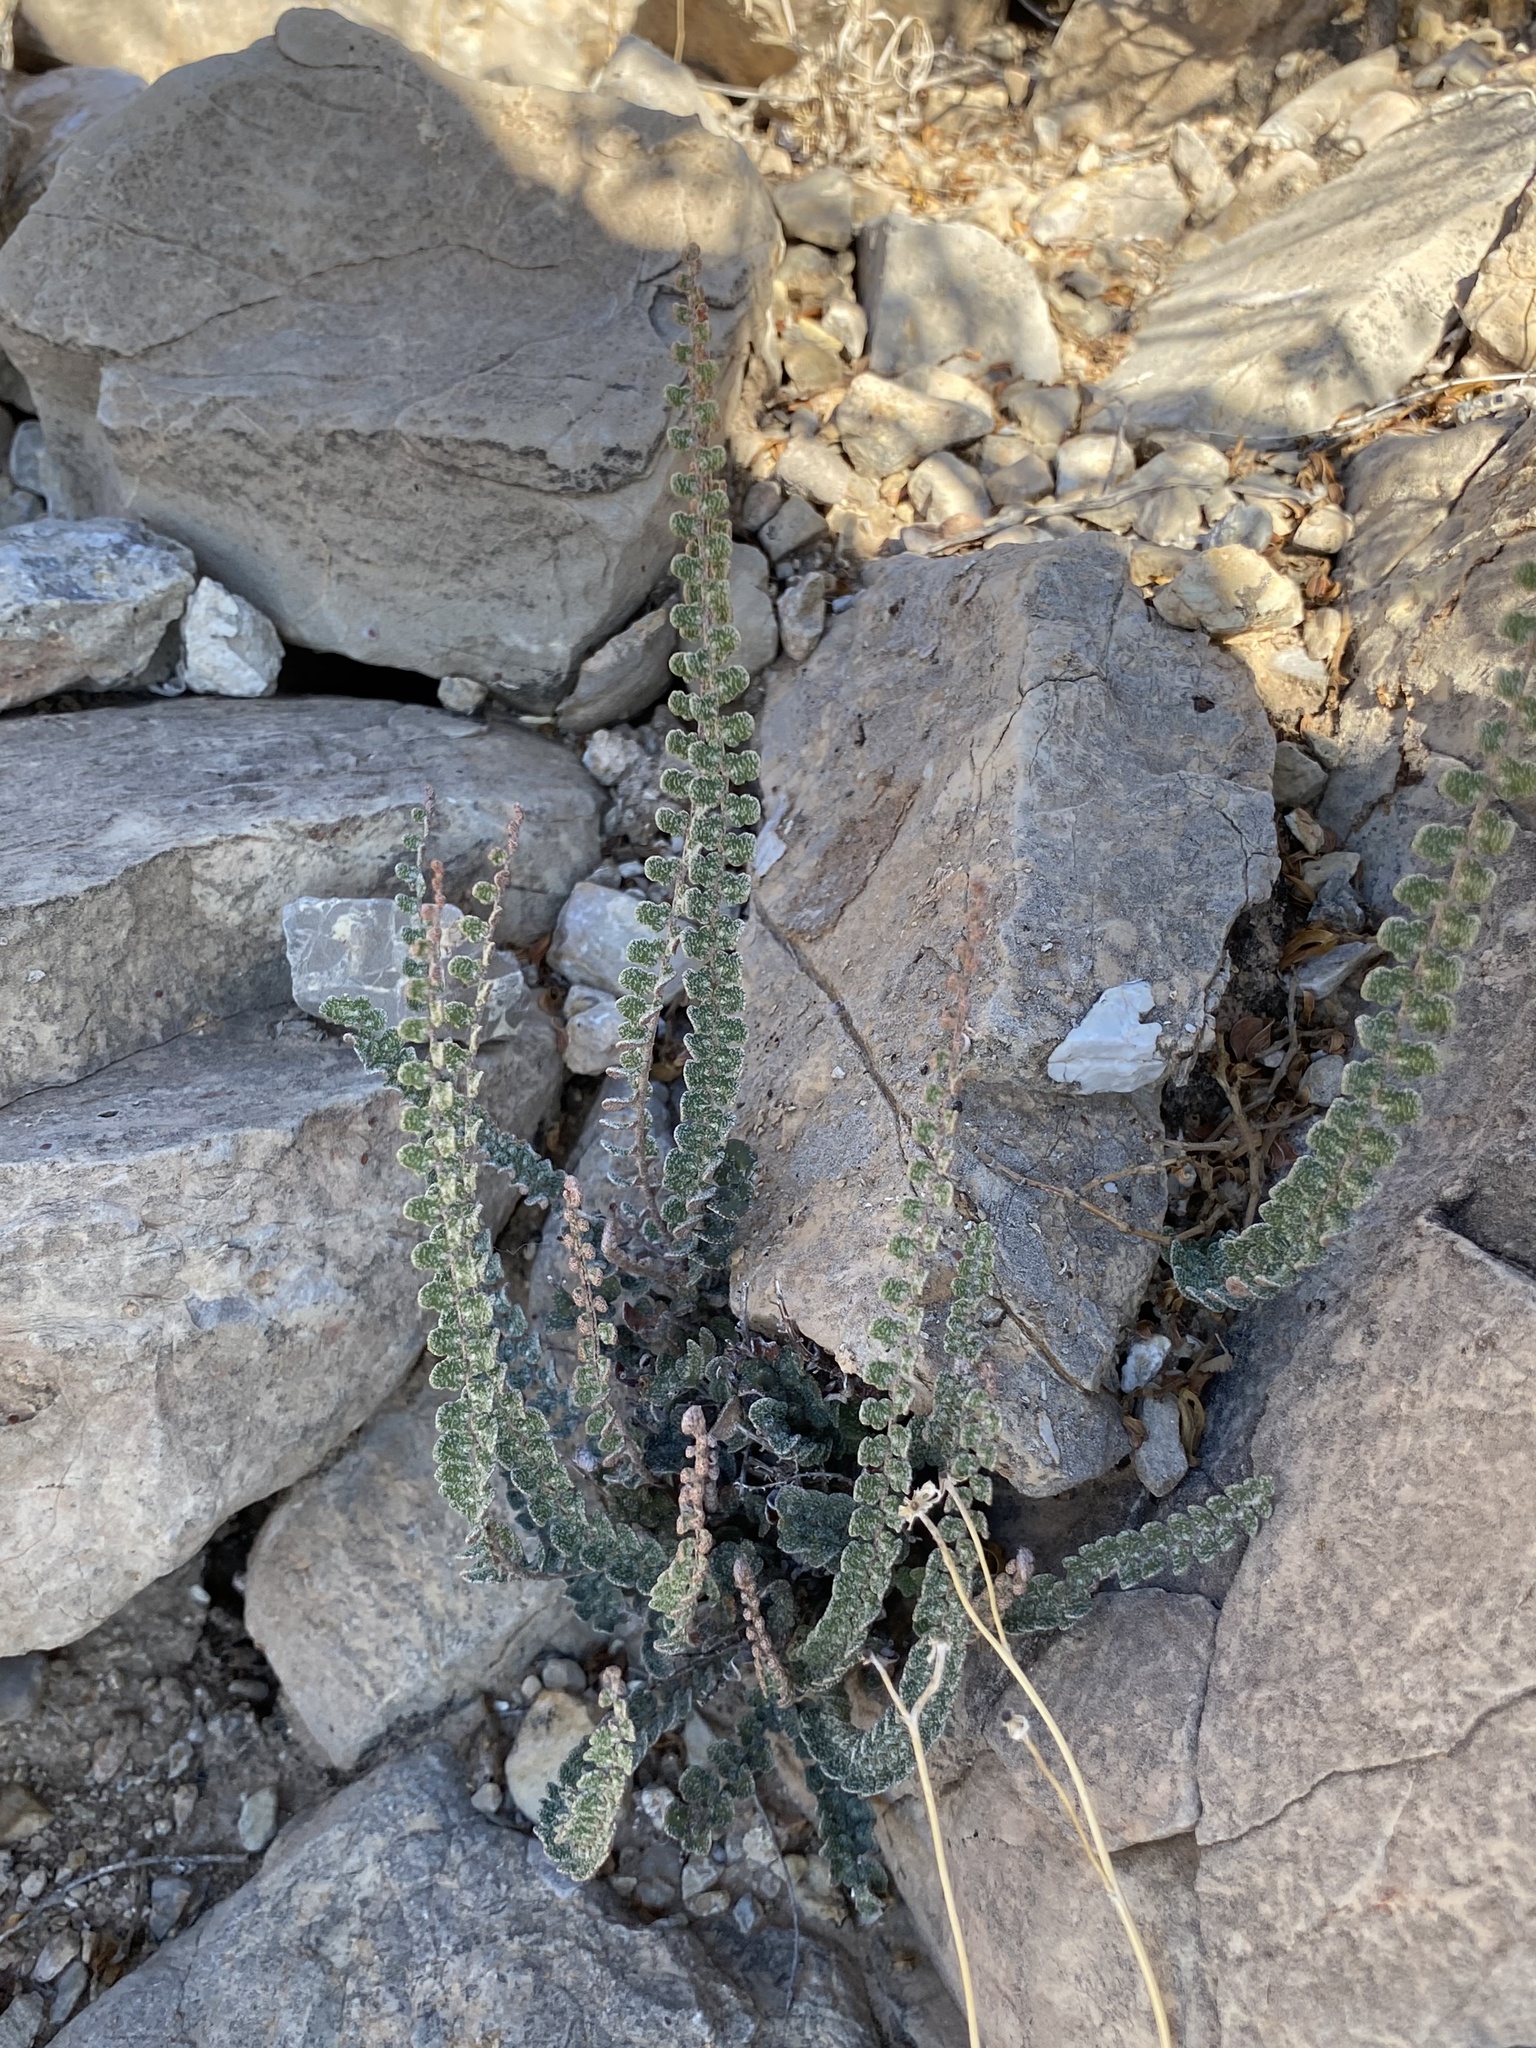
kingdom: Plantae
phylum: Tracheophyta
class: Polypodiopsida
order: Polypodiales
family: Pteridaceae
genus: Astrolepis
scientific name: Astrolepis cochisensis
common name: Scaly cloak fern
